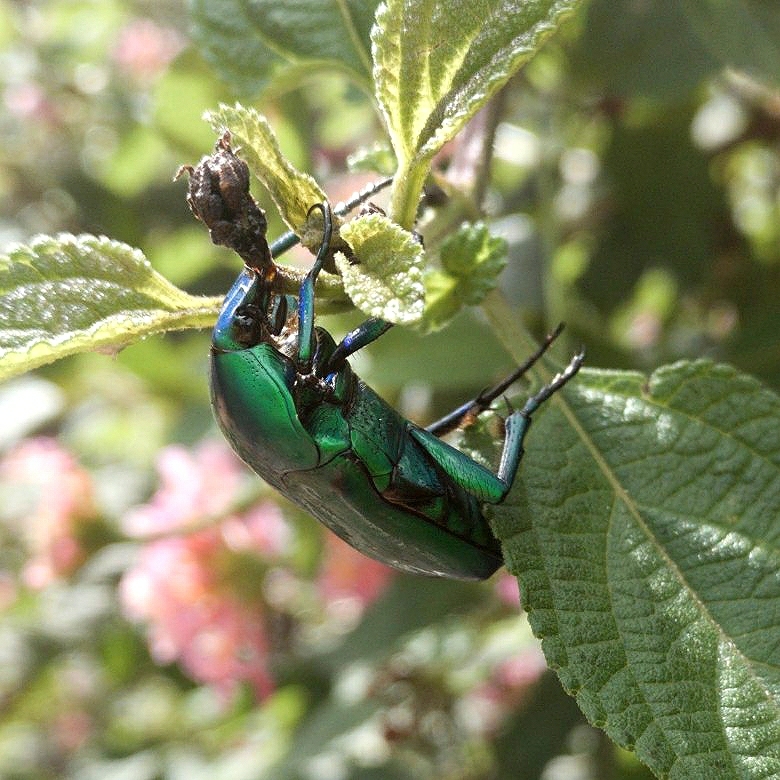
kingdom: Animalia
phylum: Arthropoda
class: Insecta
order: Coleoptera
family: Scarabaeidae
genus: Ptychodesthes
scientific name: Ptychodesthes Heterorrhina elegans
